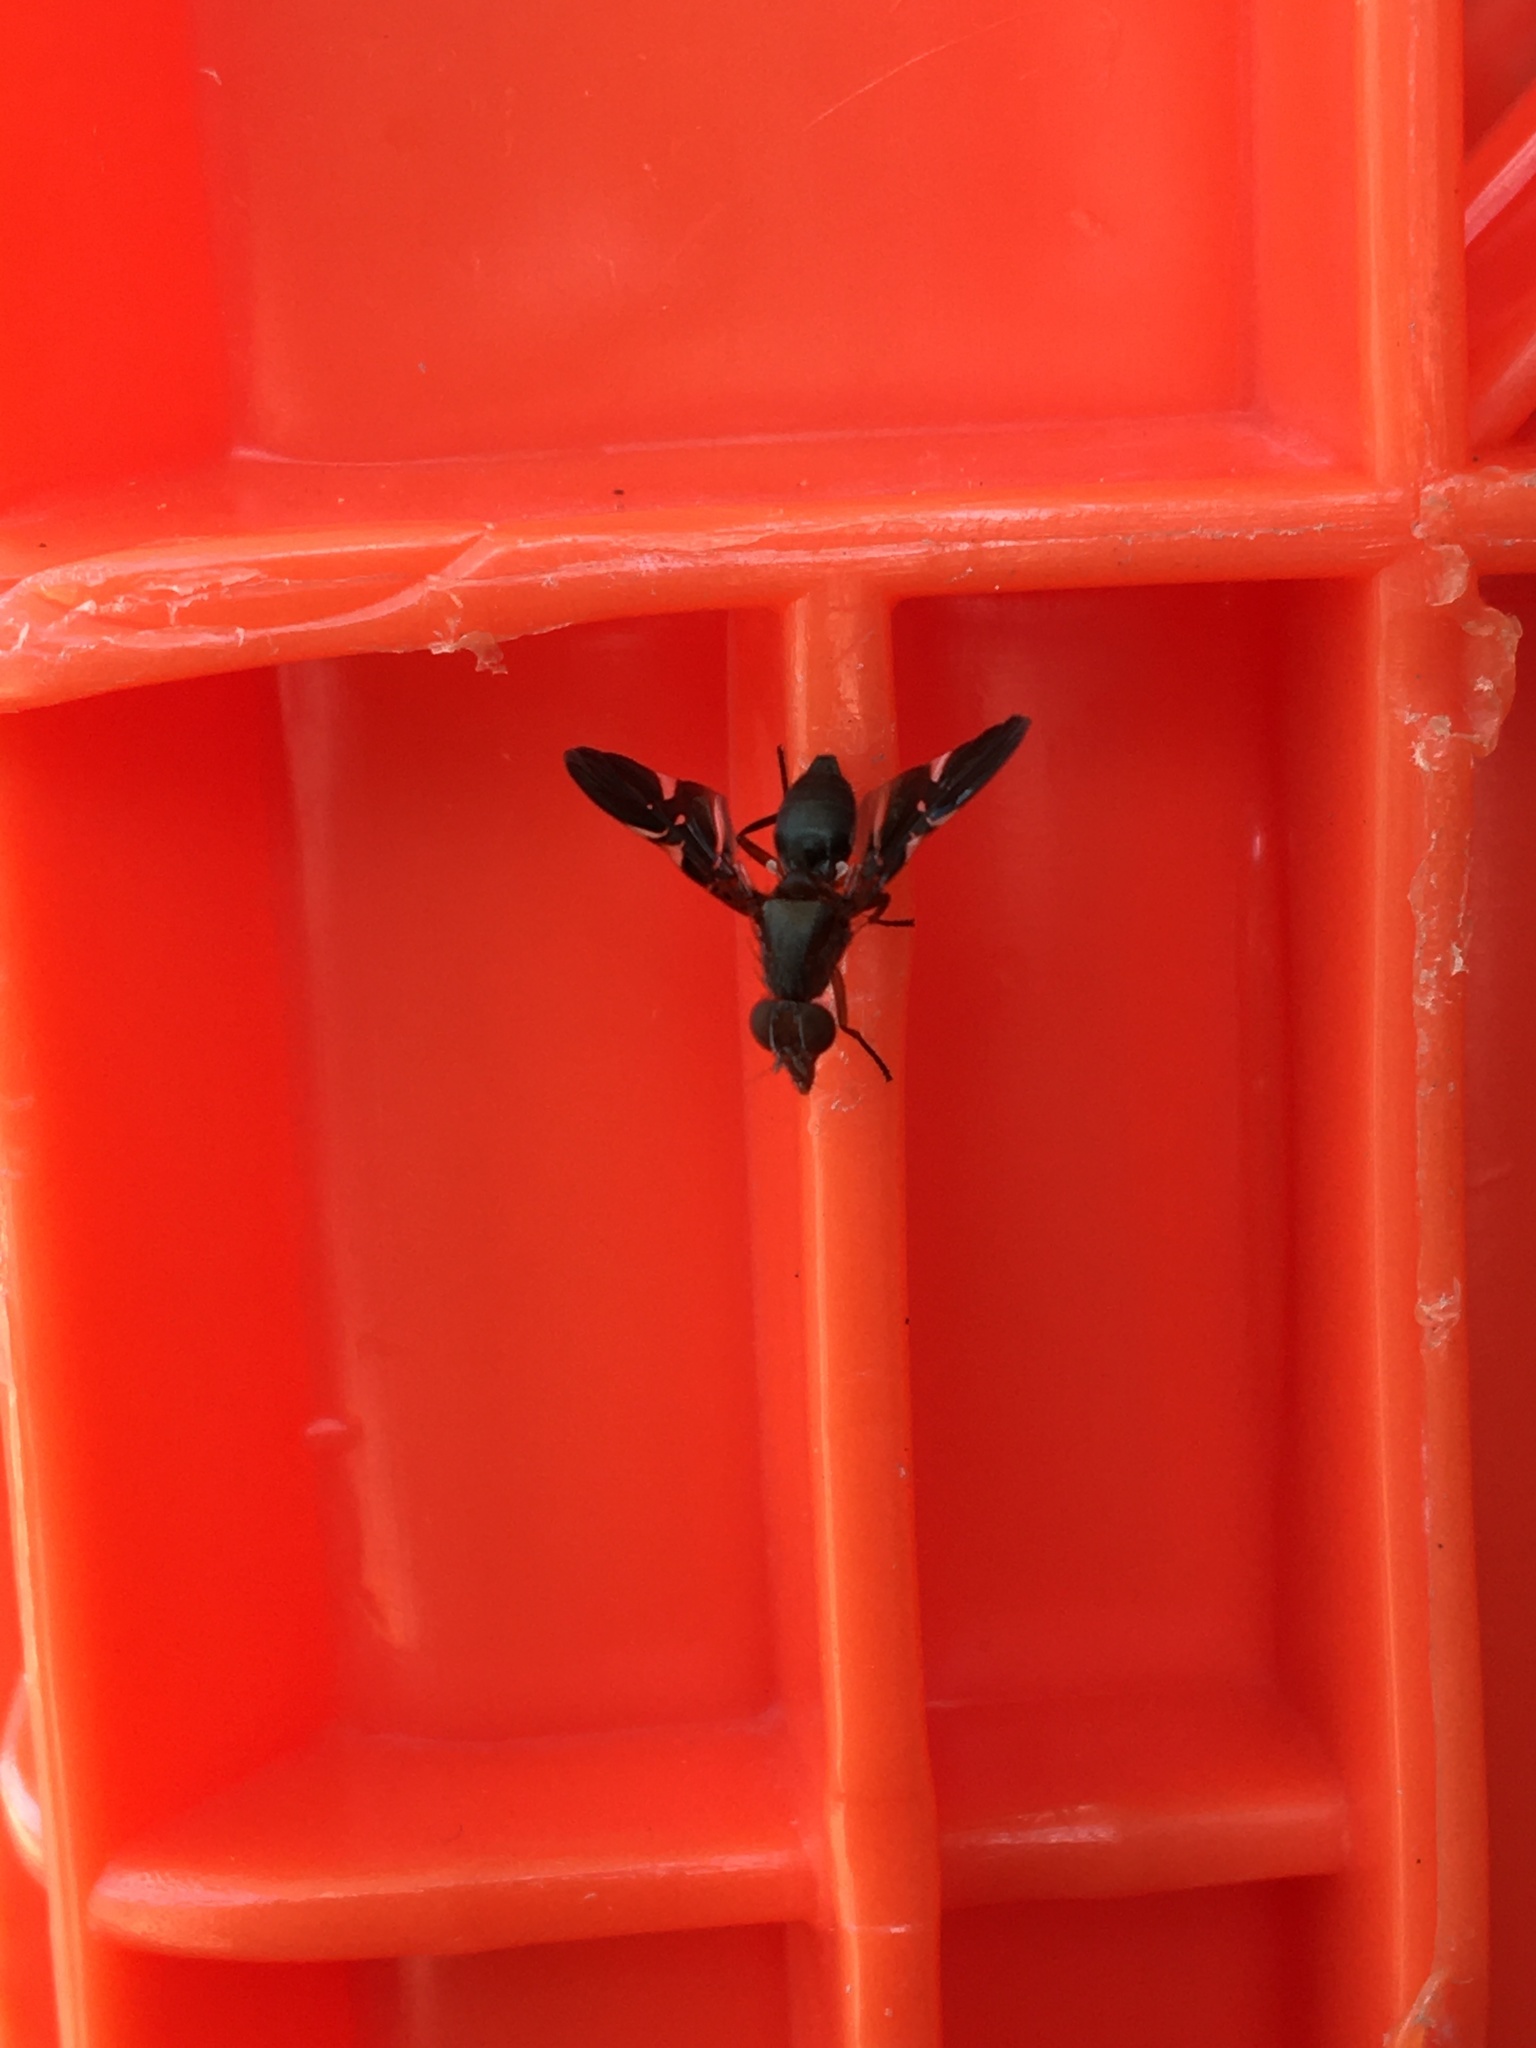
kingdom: Animalia
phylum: Arthropoda
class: Insecta
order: Diptera
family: Ulidiidae
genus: Delphinia
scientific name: Delphinia picta
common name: Common picture-winged fly
